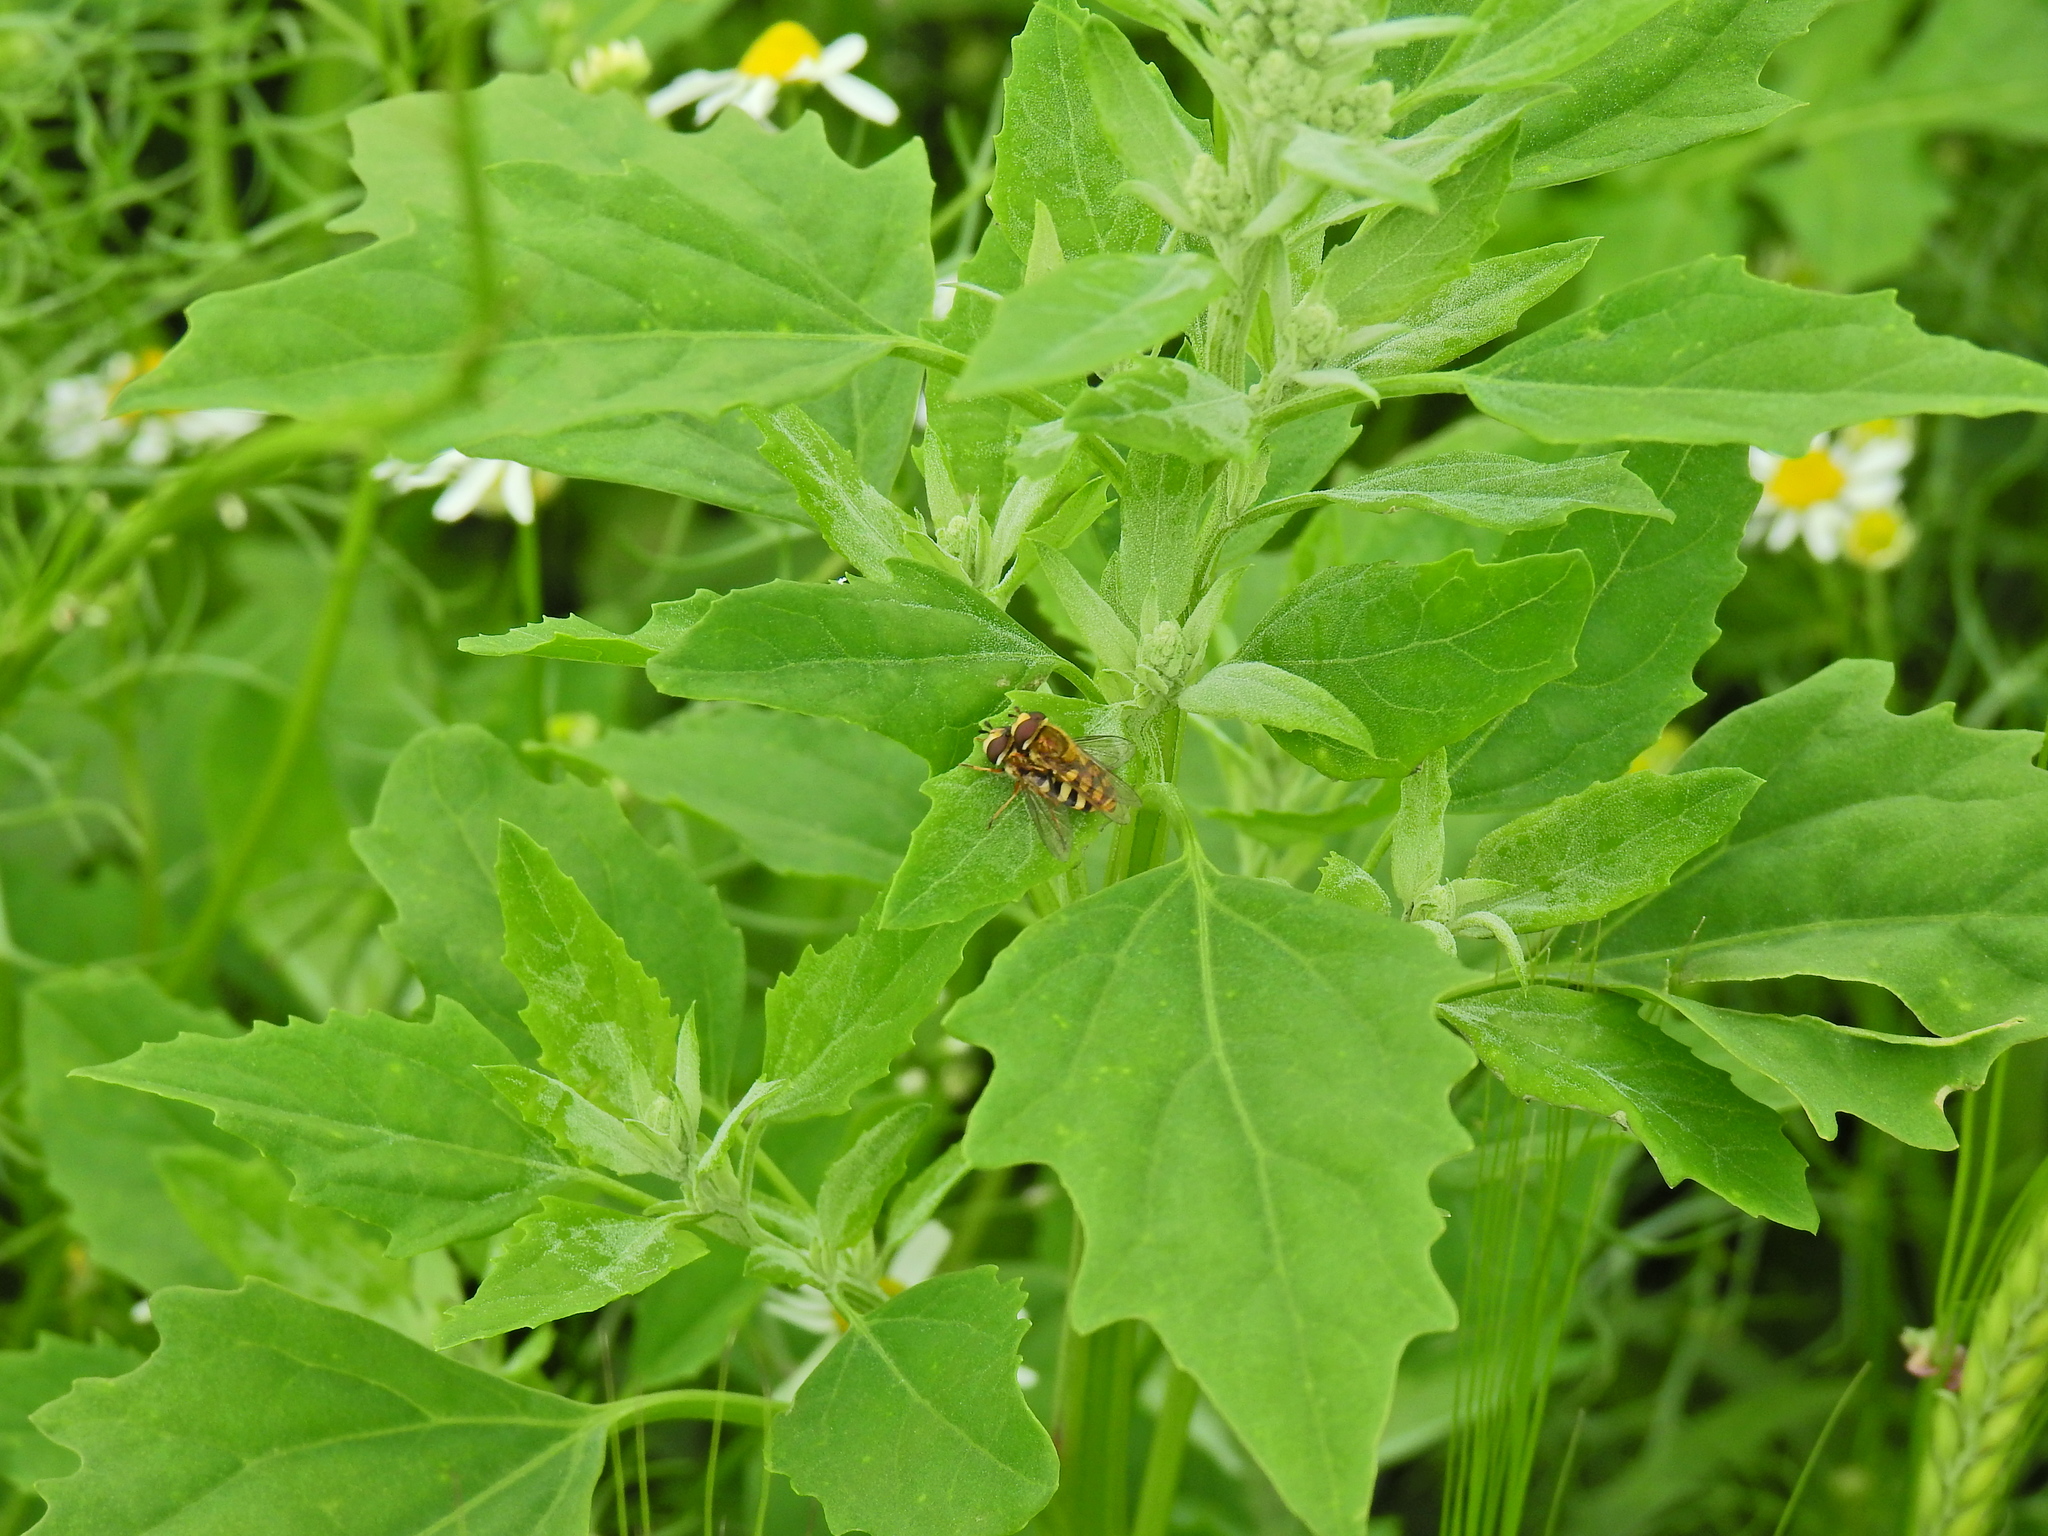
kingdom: Animalia
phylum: Arthropoda
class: Insecta
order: Diptera
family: Syrphidae
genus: Eupeodes
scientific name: Eupeodes corollae
